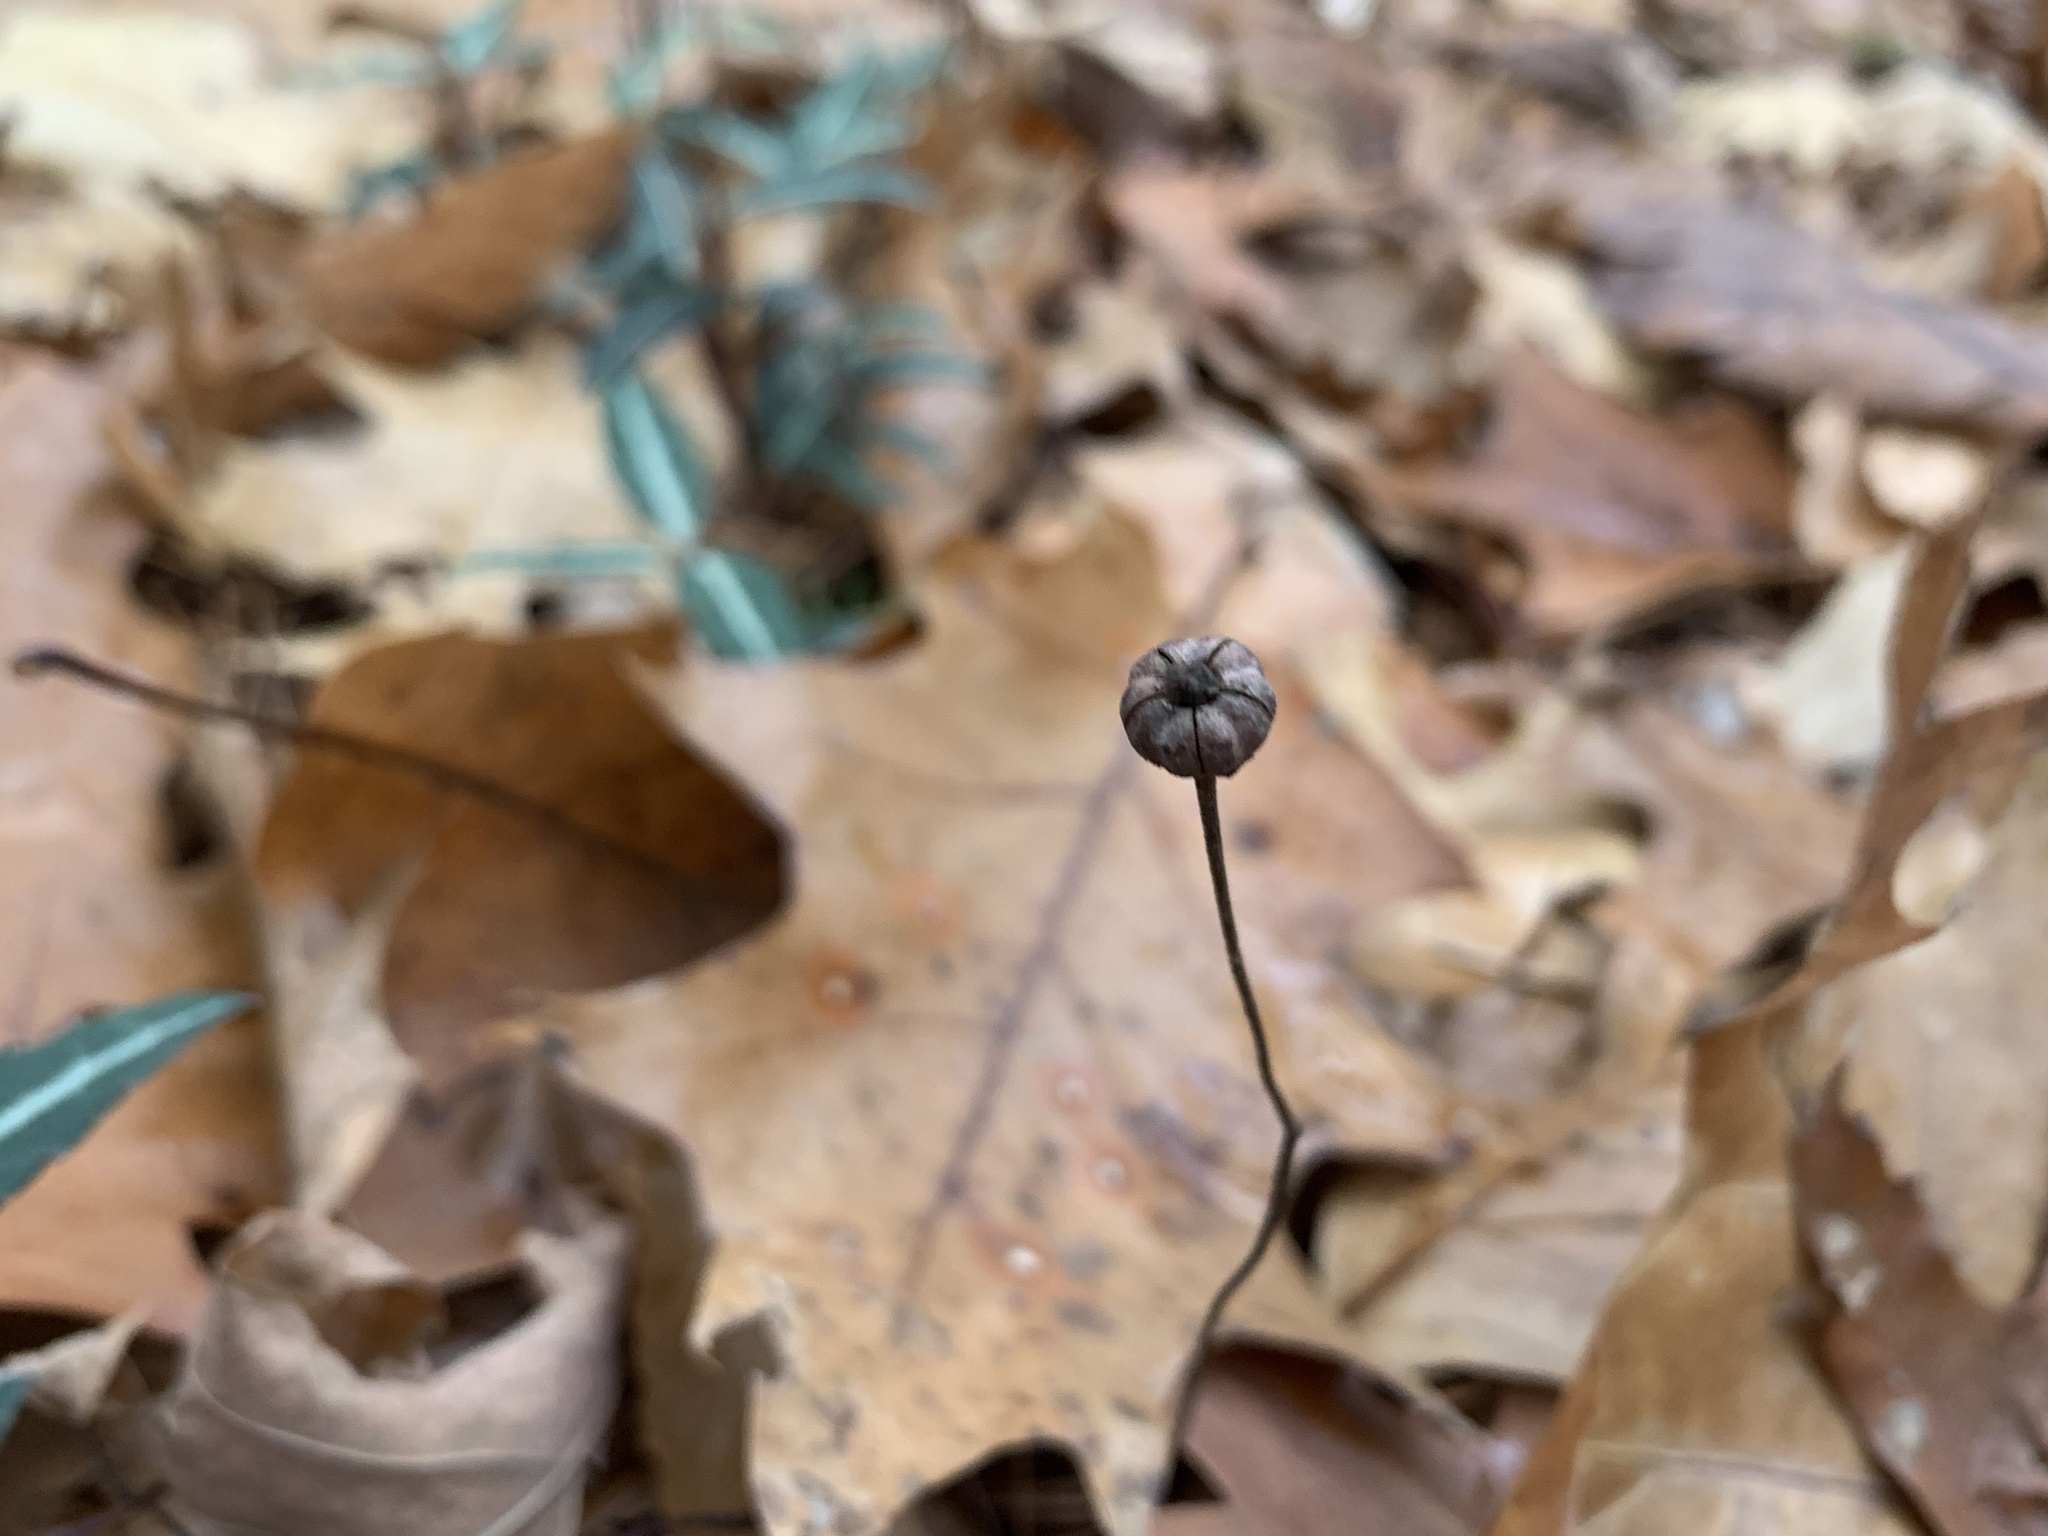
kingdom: Plantae
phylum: Tracheophyta
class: Magnoliopsida
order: Ericales
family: Ericaceae
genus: Chimaphila
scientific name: Chimaphila maculata
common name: Spotted pipsissewa
